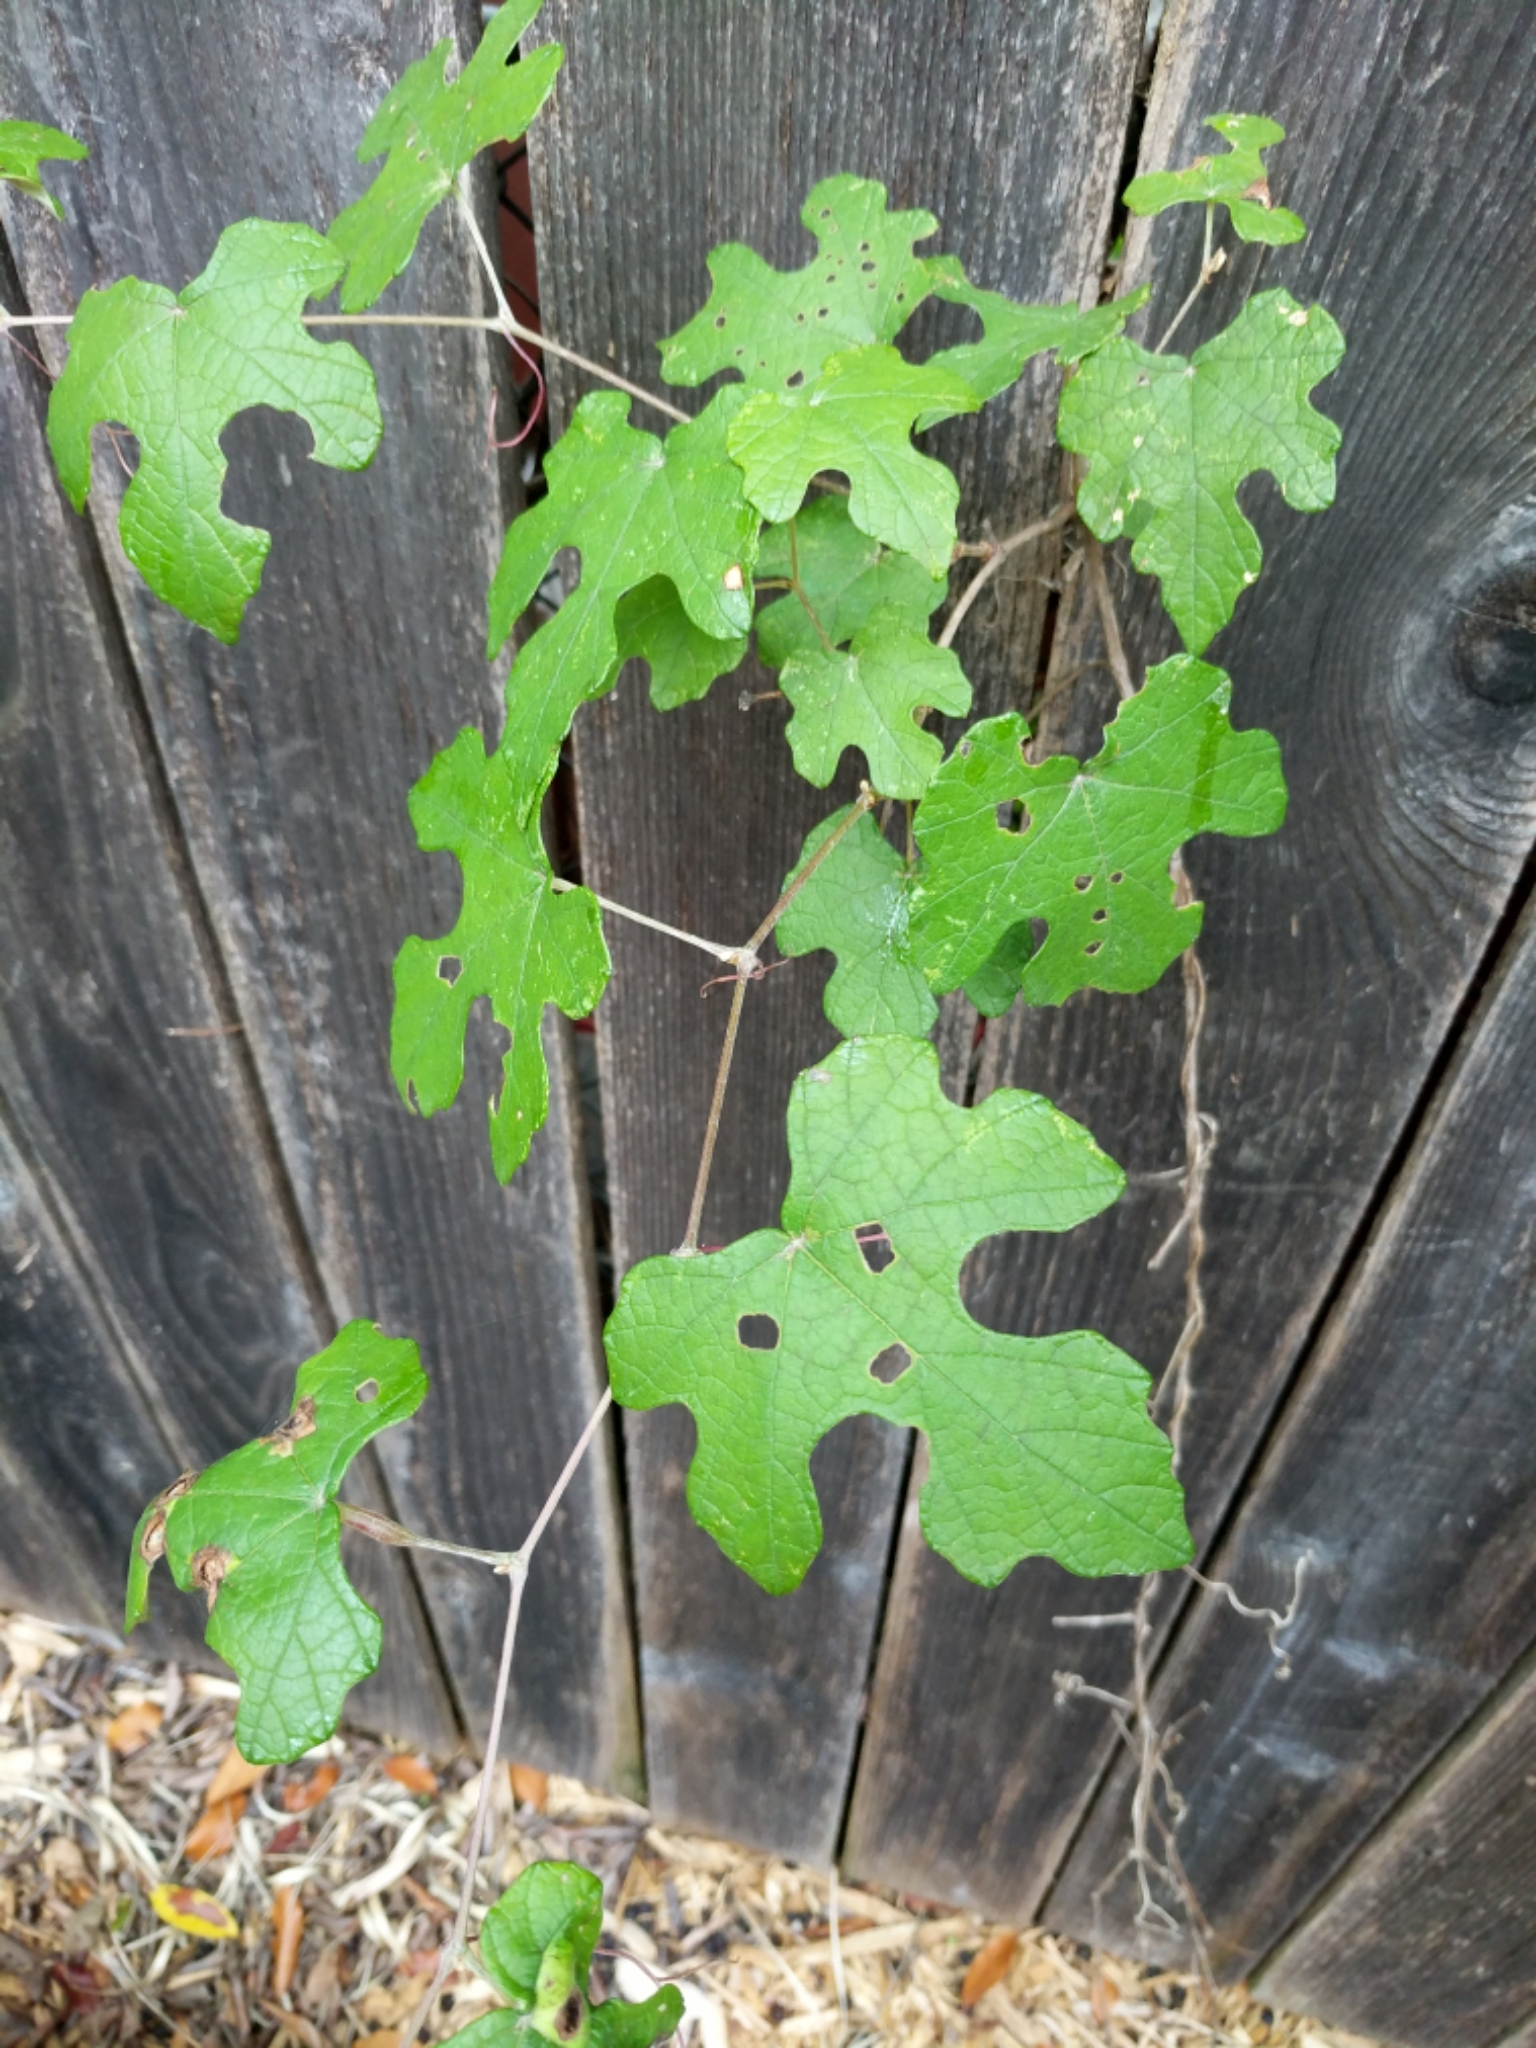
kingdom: Plantae
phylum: Tracheophyta
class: Magnoliopsida
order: Vitales
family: Vitaceae
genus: Vitis
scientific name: Vitis mustangensis
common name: Mustang grape
